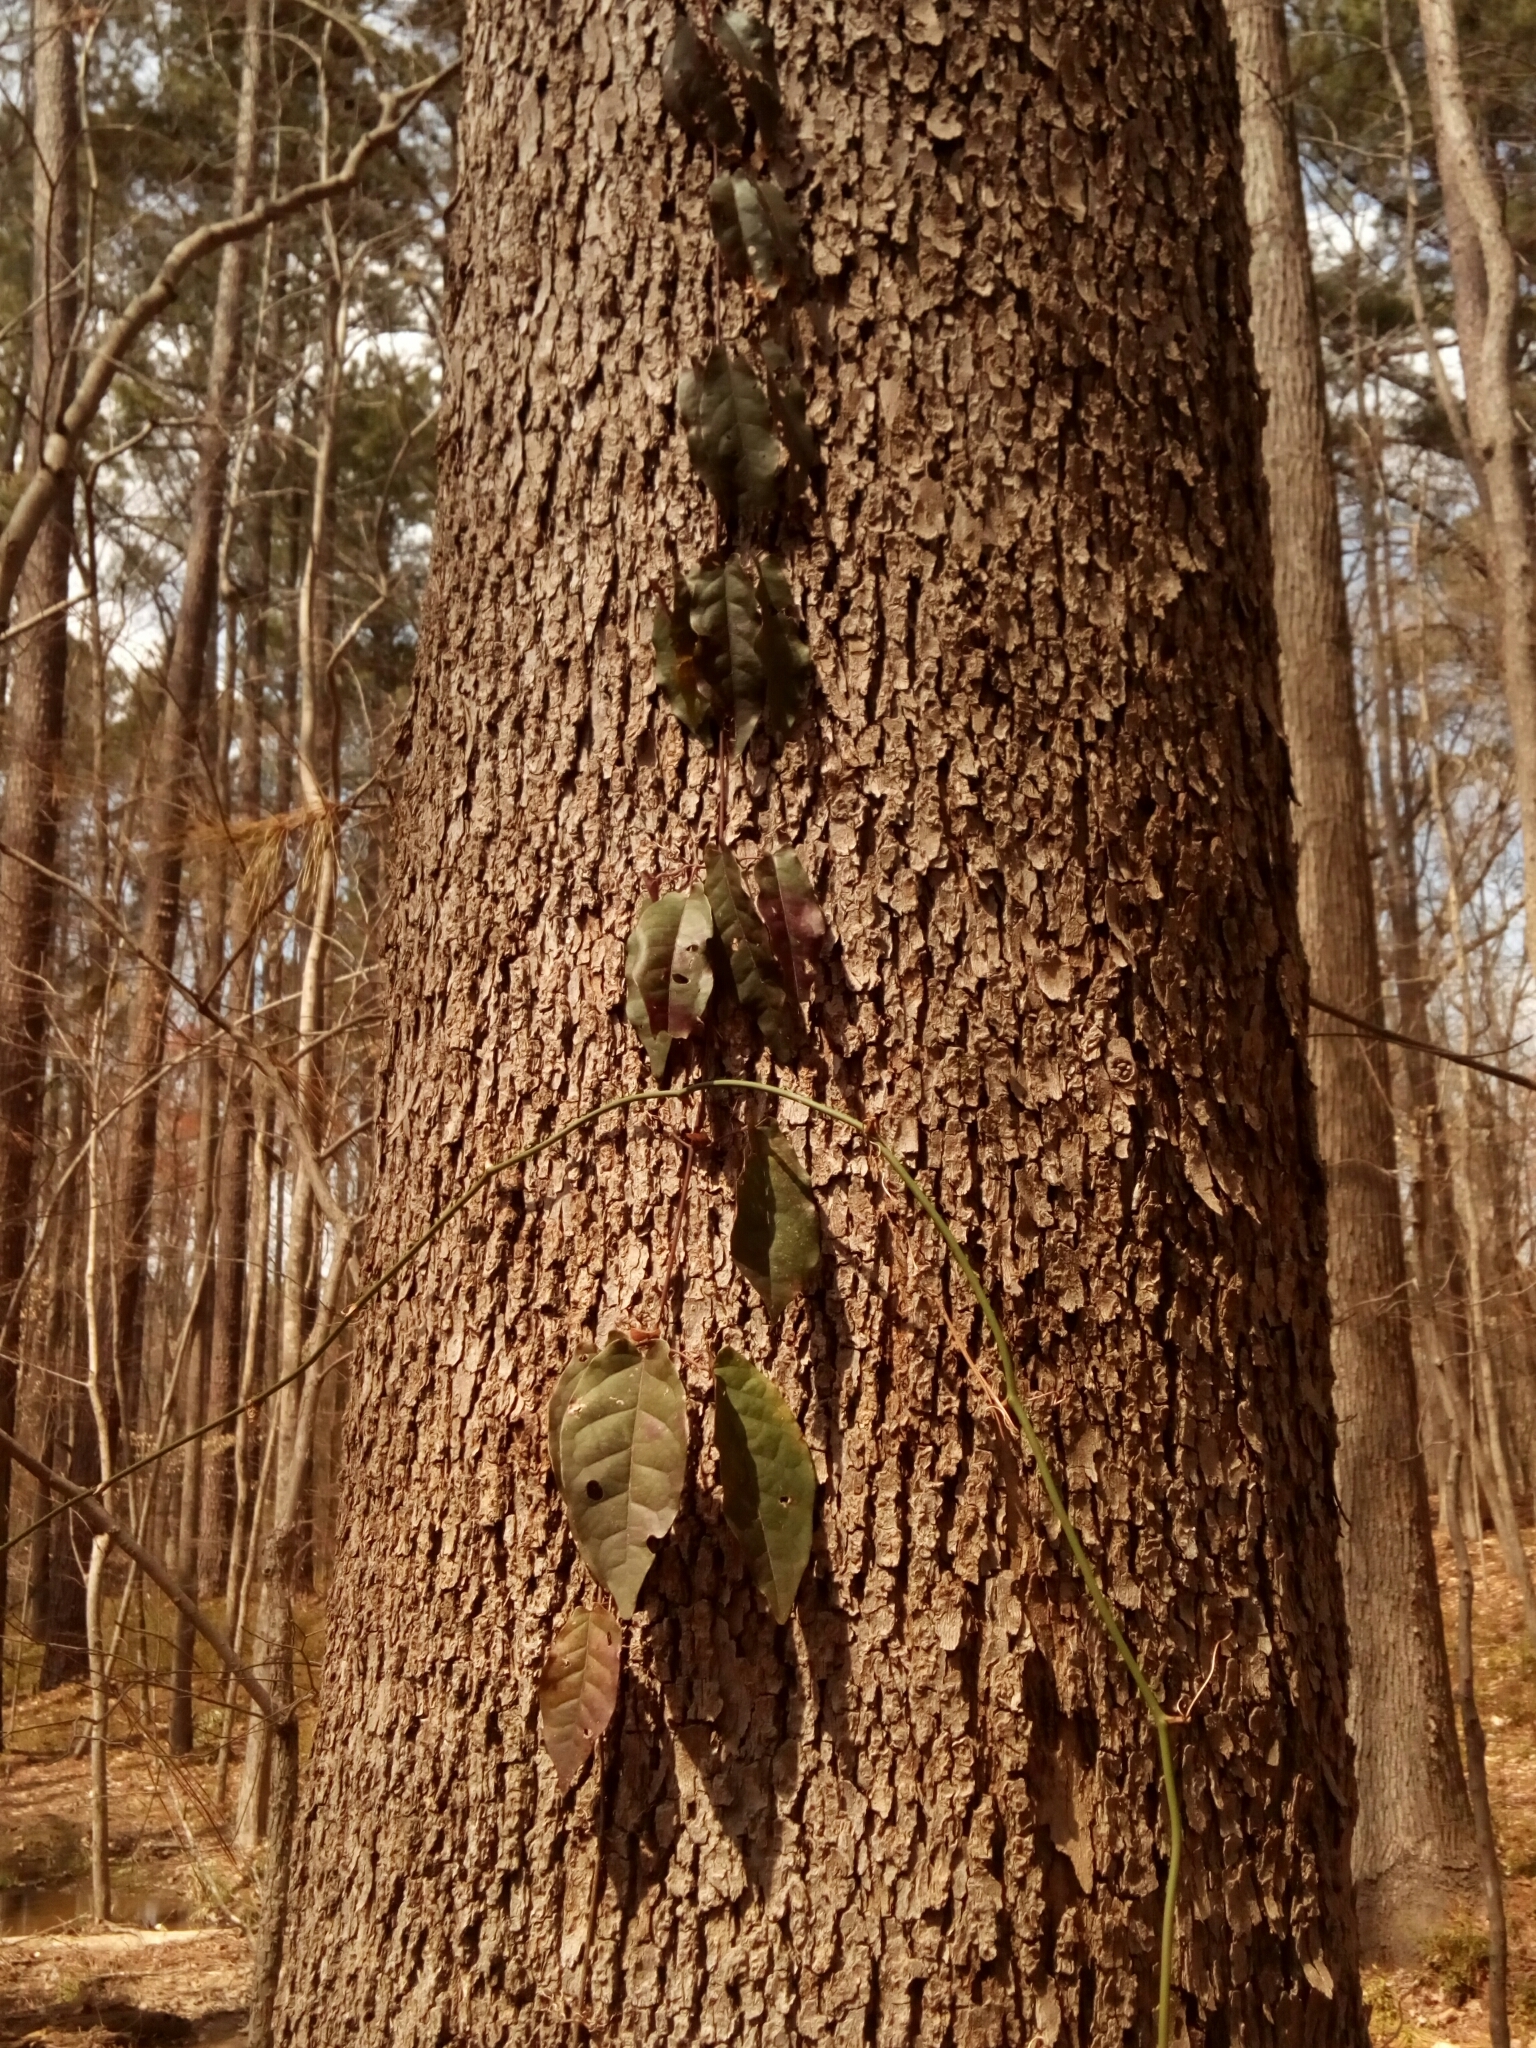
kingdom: Plantae
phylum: Tracheophyta
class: Magnoliopsida
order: Lamiales
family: Bignoniaceae
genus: Bignonia
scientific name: Bignonia capreolata
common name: Crossvine
